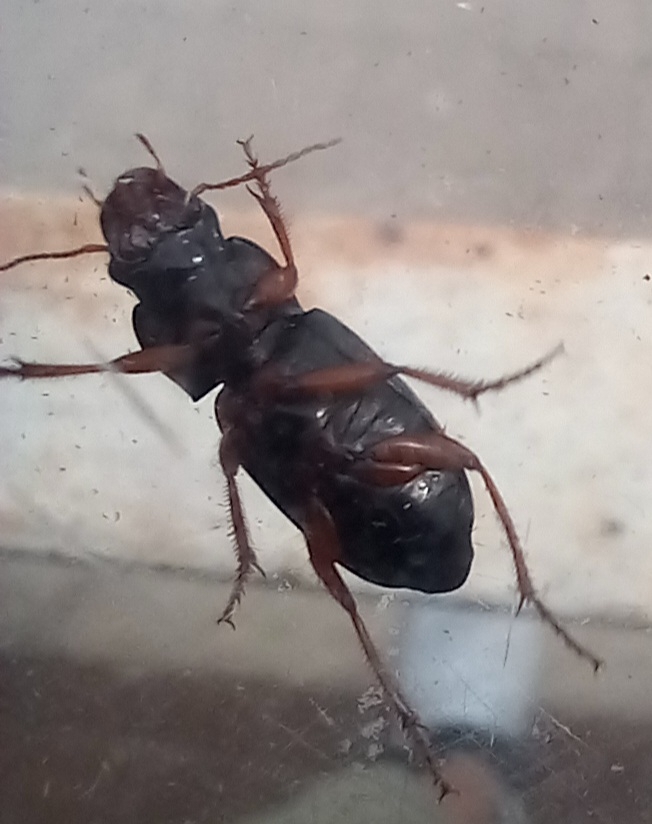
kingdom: Animalia
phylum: Arthropoda
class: Insecta
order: Coleoptera
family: Carabidae
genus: Harpalus
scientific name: Harpalus rufipes
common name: Strawberry harp ground beetle
